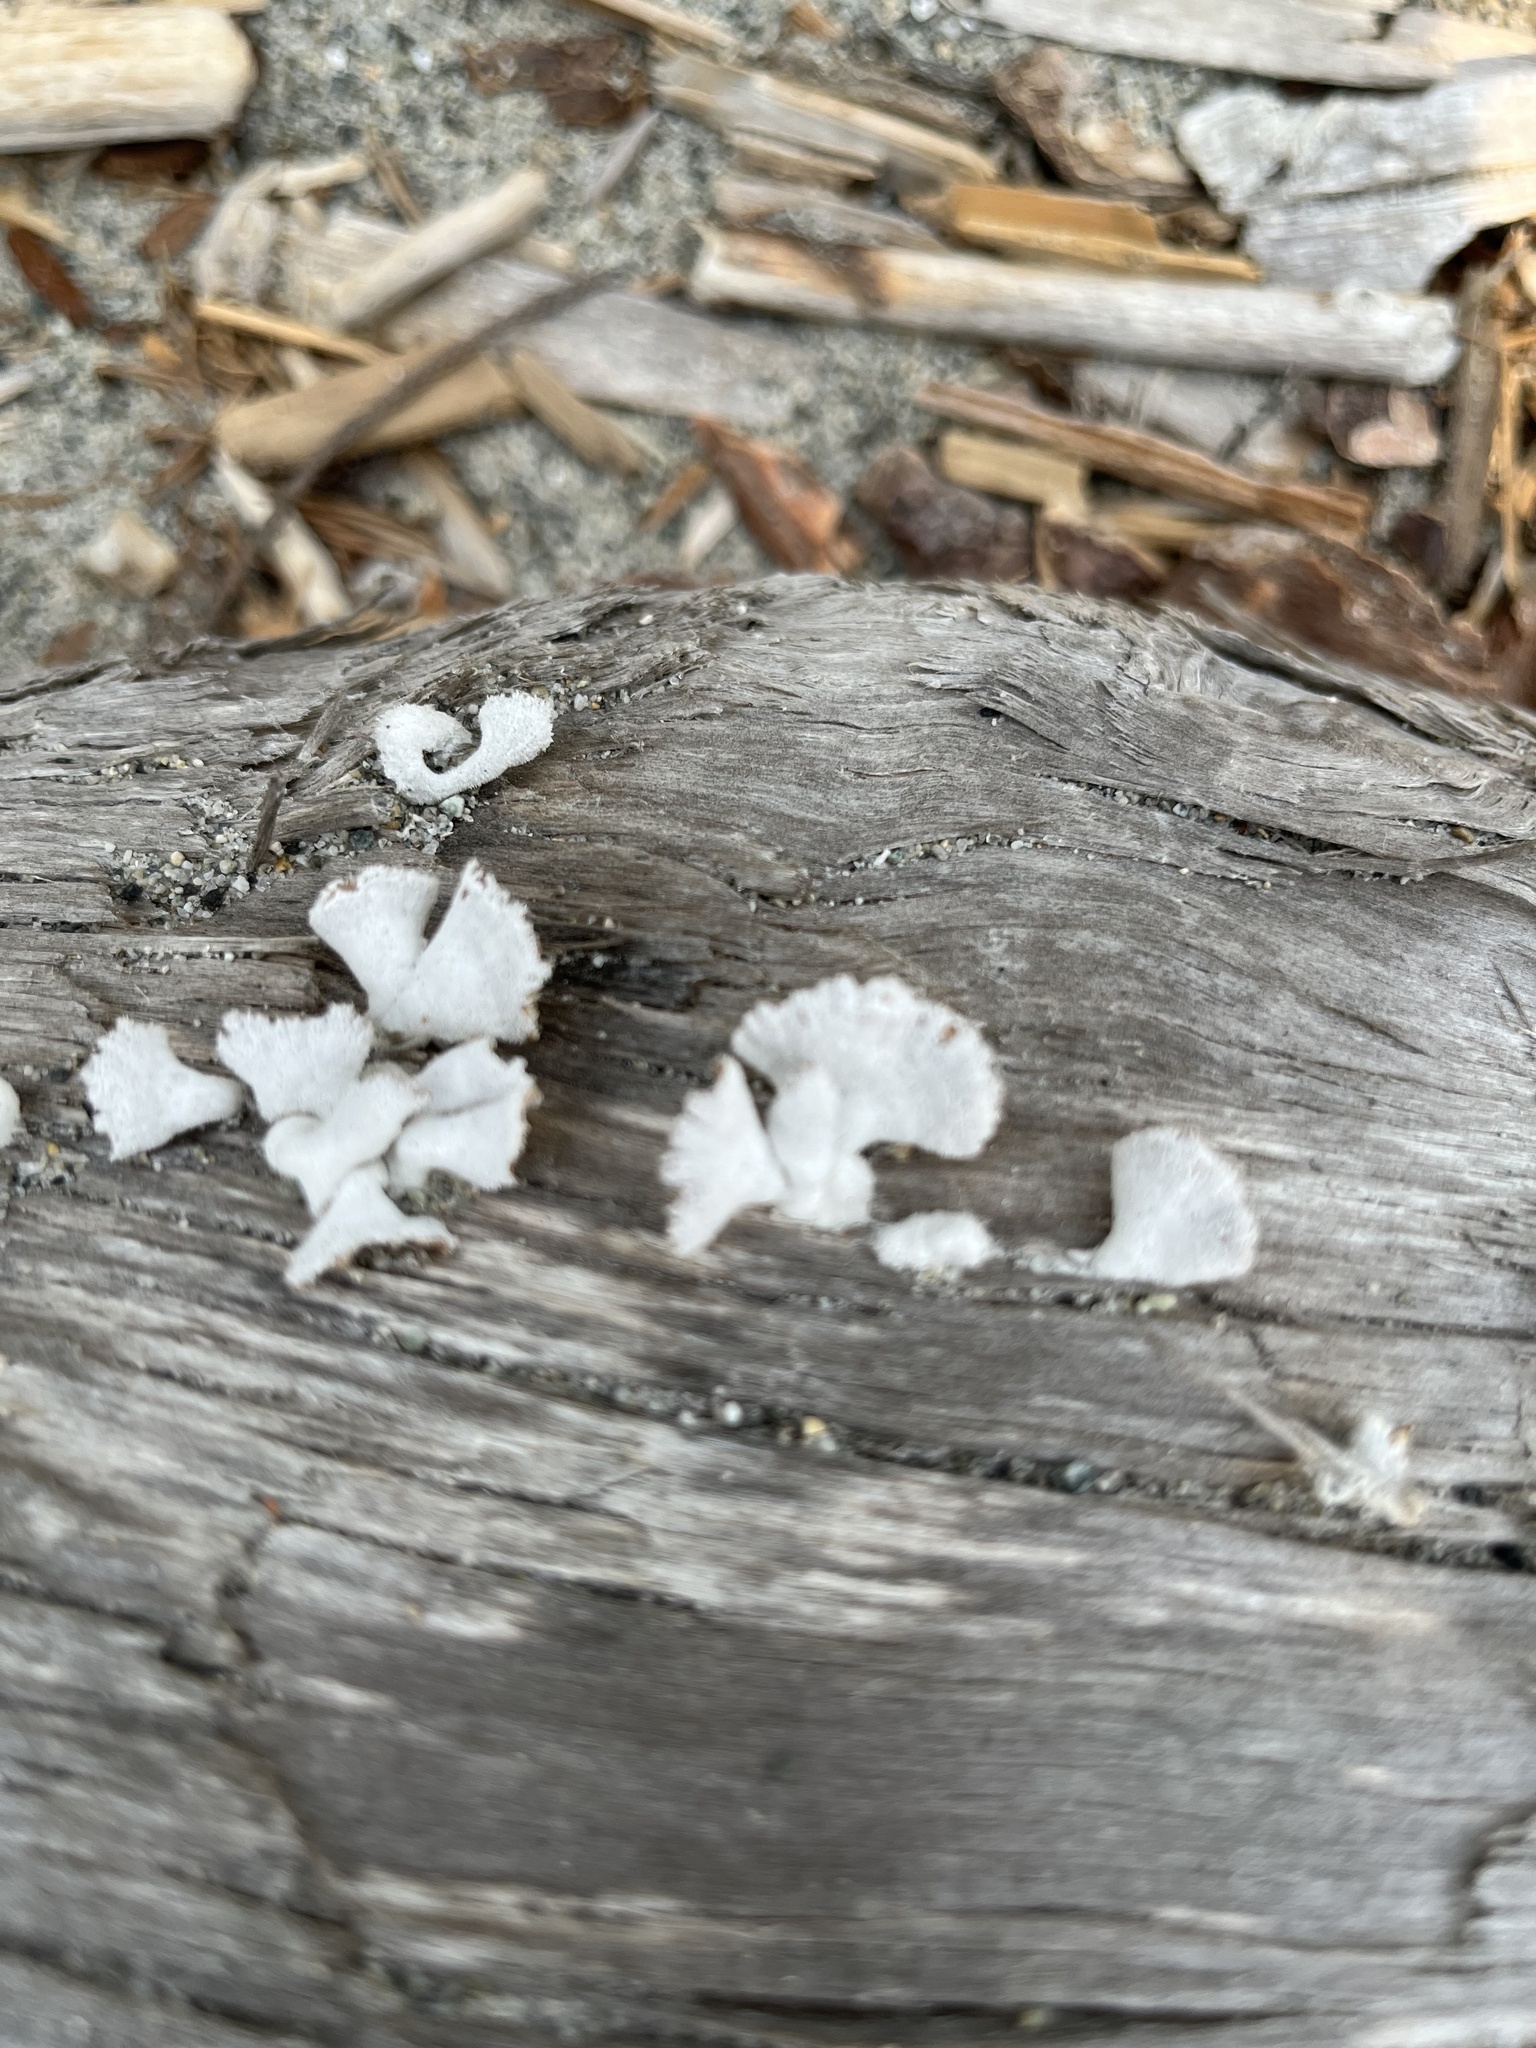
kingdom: Fungi
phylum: Basidiomycota
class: Agaricomycetes
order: Agaricales
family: Schizophyllaceae
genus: Schizophyllum
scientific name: Schizophyllum commune
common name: Common porecrust
